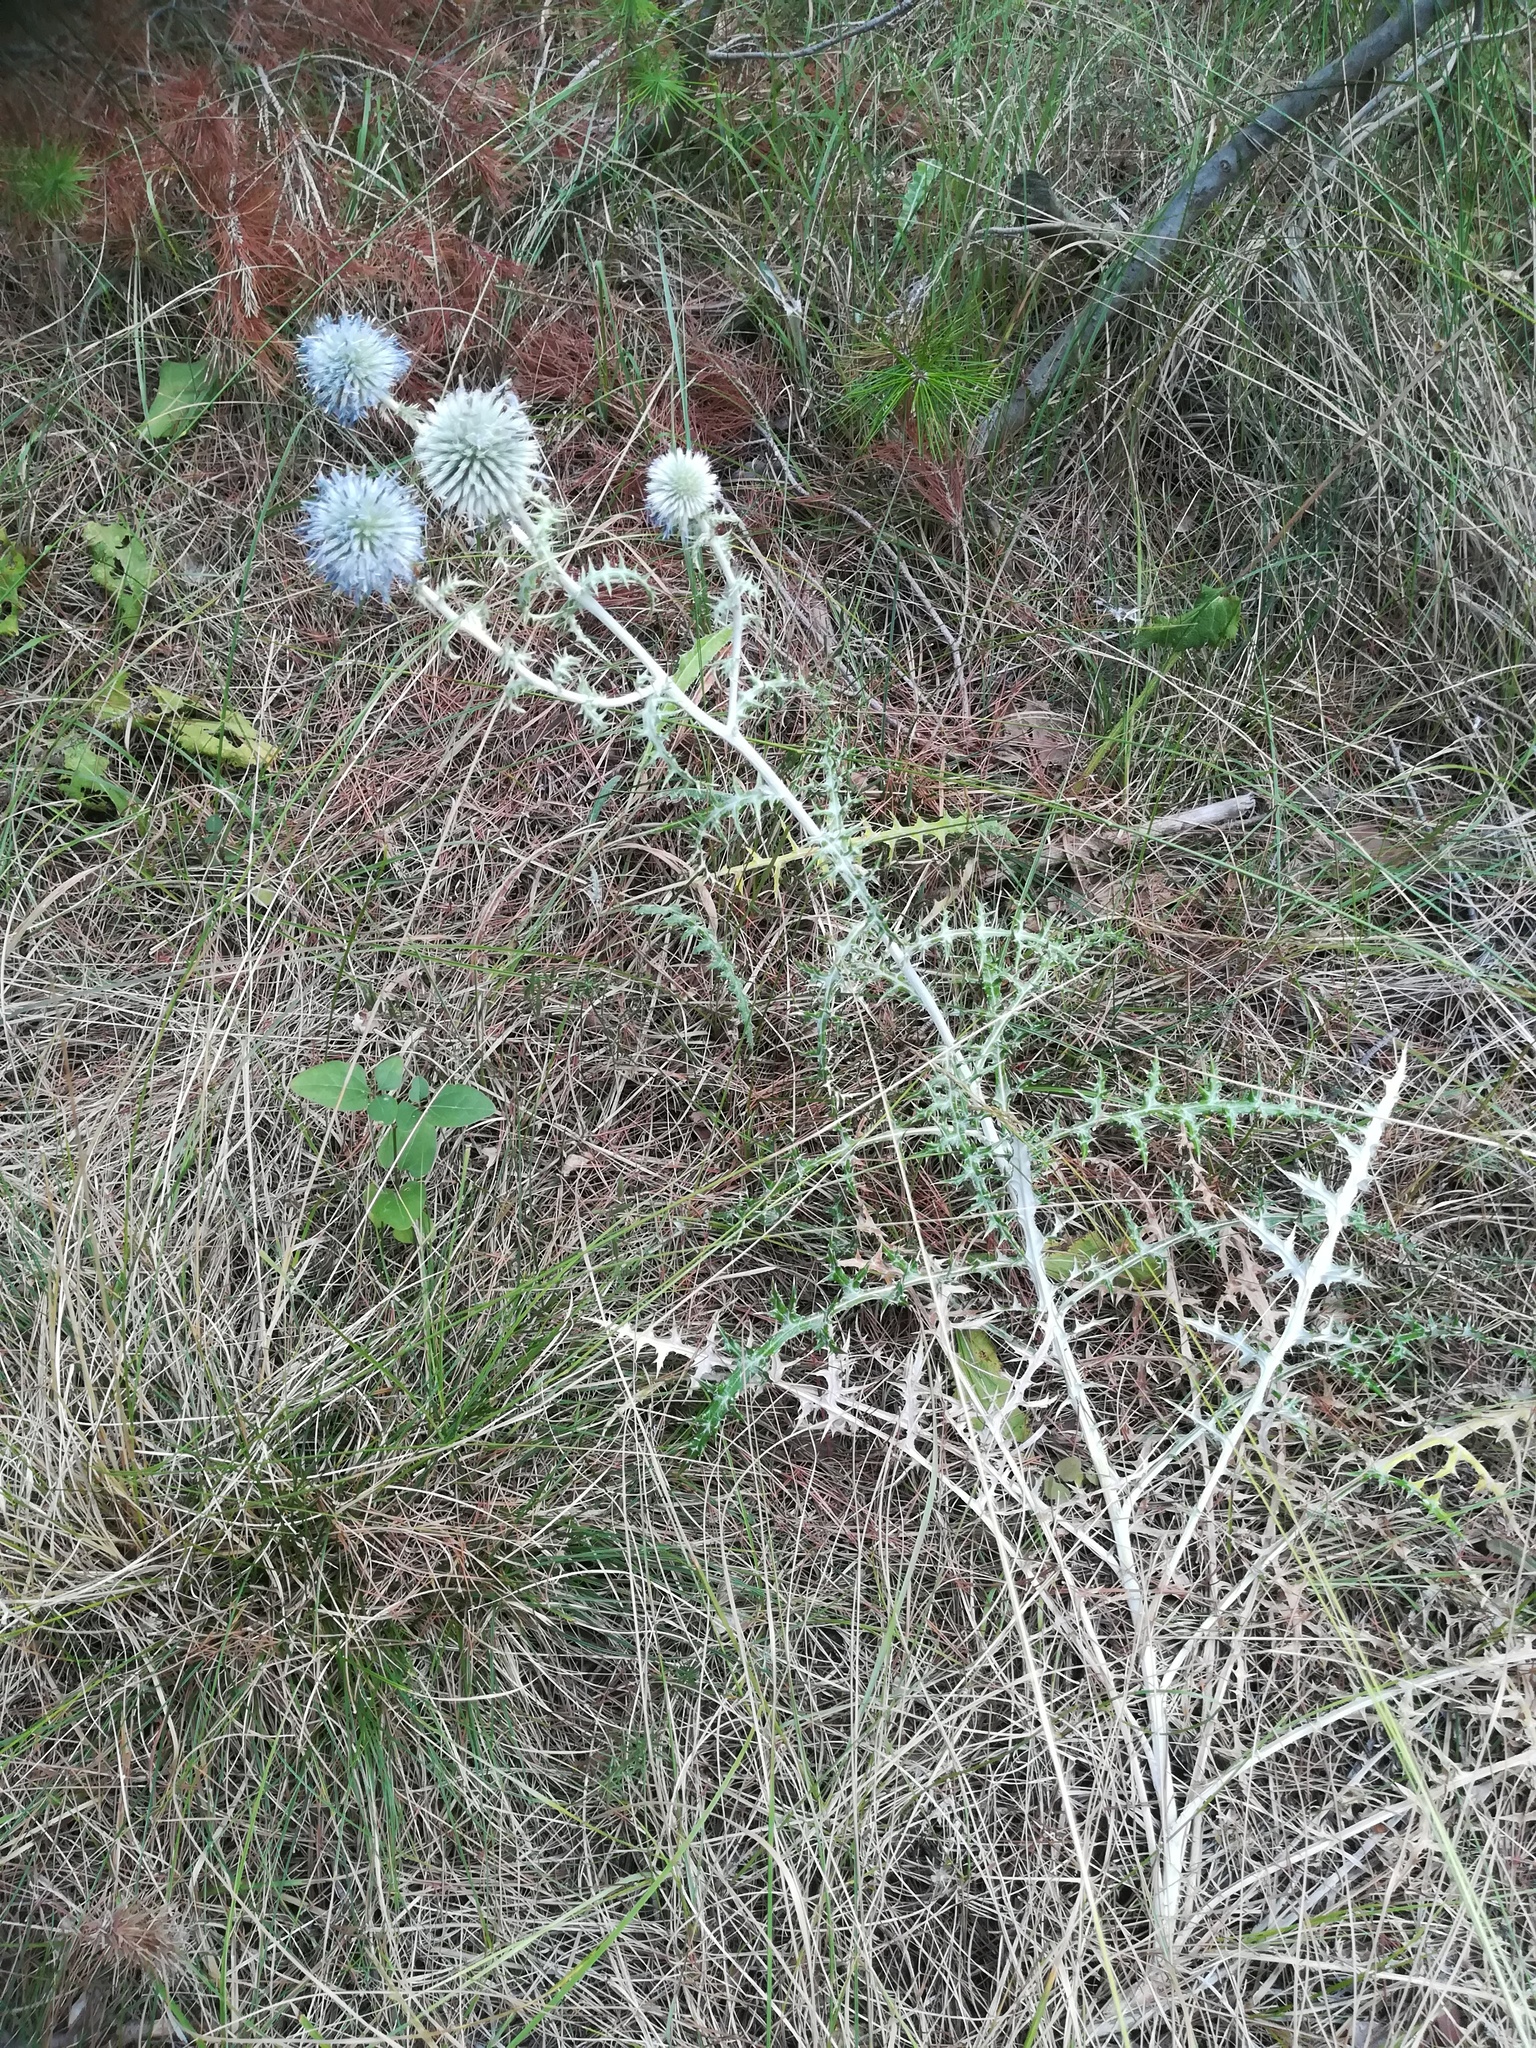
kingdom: Plantae
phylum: Tracheophyta
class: Magnoliopsida
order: Asterales
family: Asteraceae
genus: Echinops
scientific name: Echinops ritro
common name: Globe thistle
